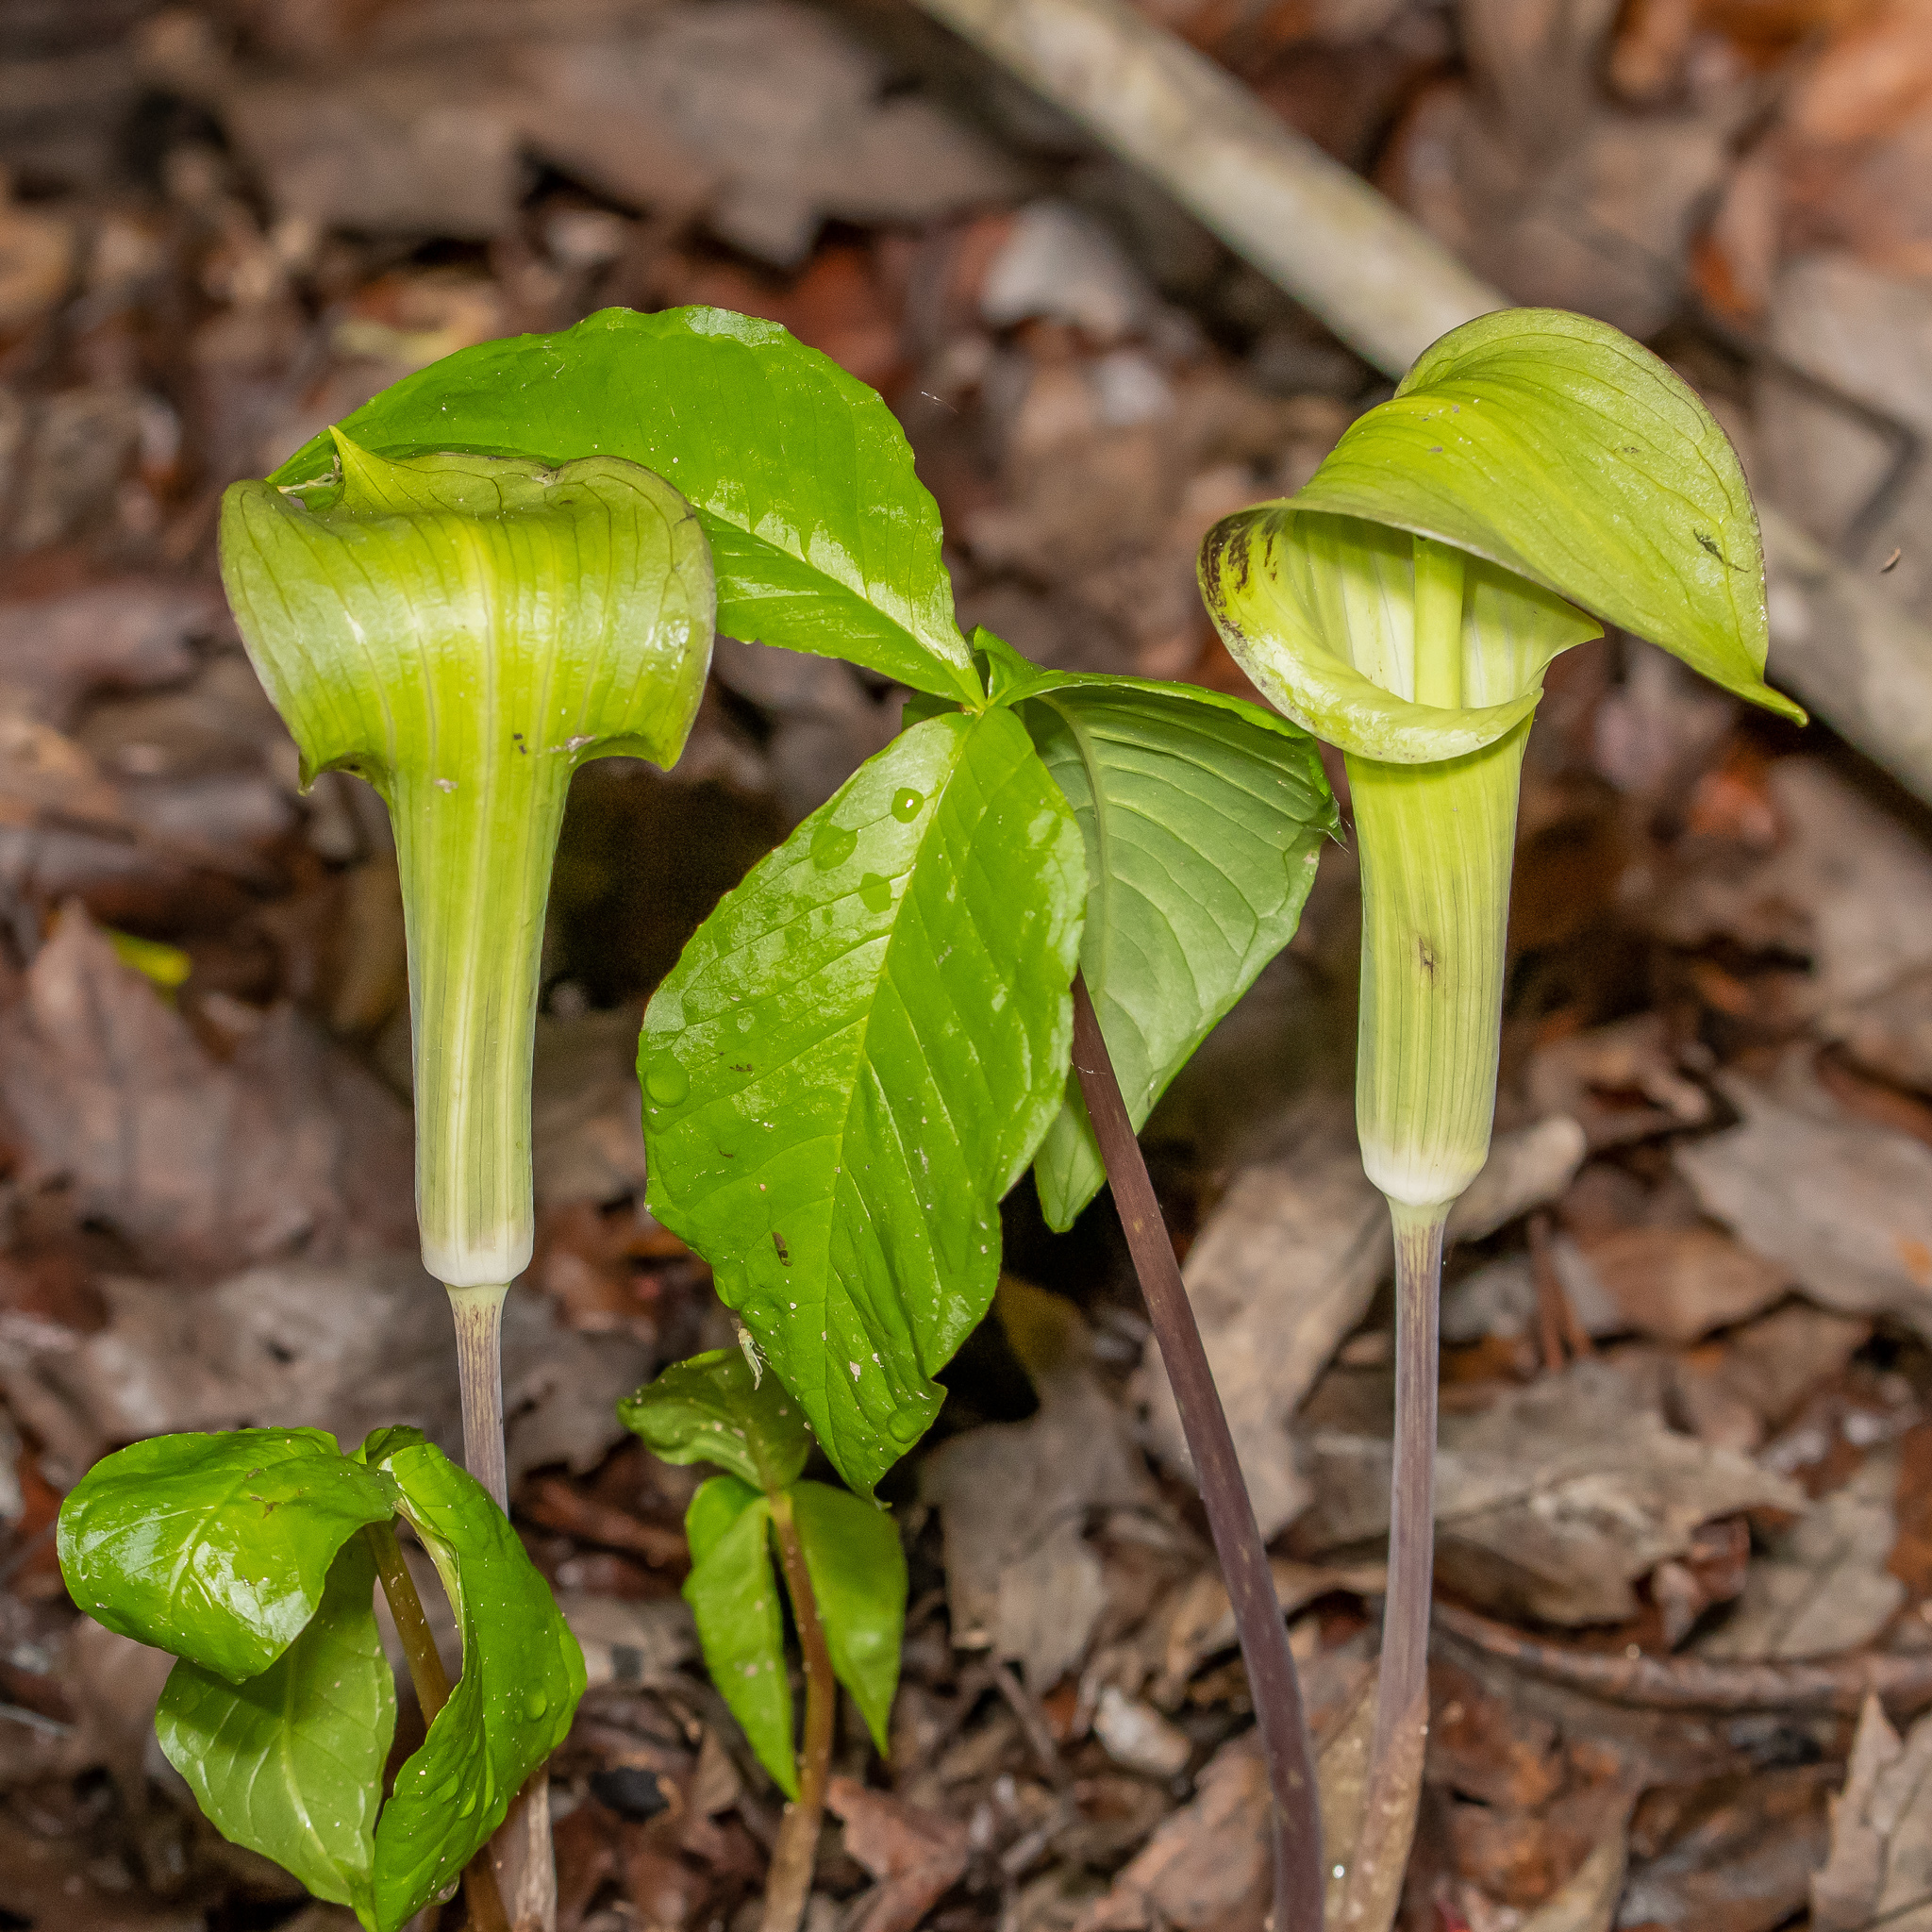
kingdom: Plantae
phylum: Tracheophyta
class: Liliopsida
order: Alismatales
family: Araceae
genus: Arisaema
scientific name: Arisaema triphyllum
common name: Jack-in-the-pulpit
